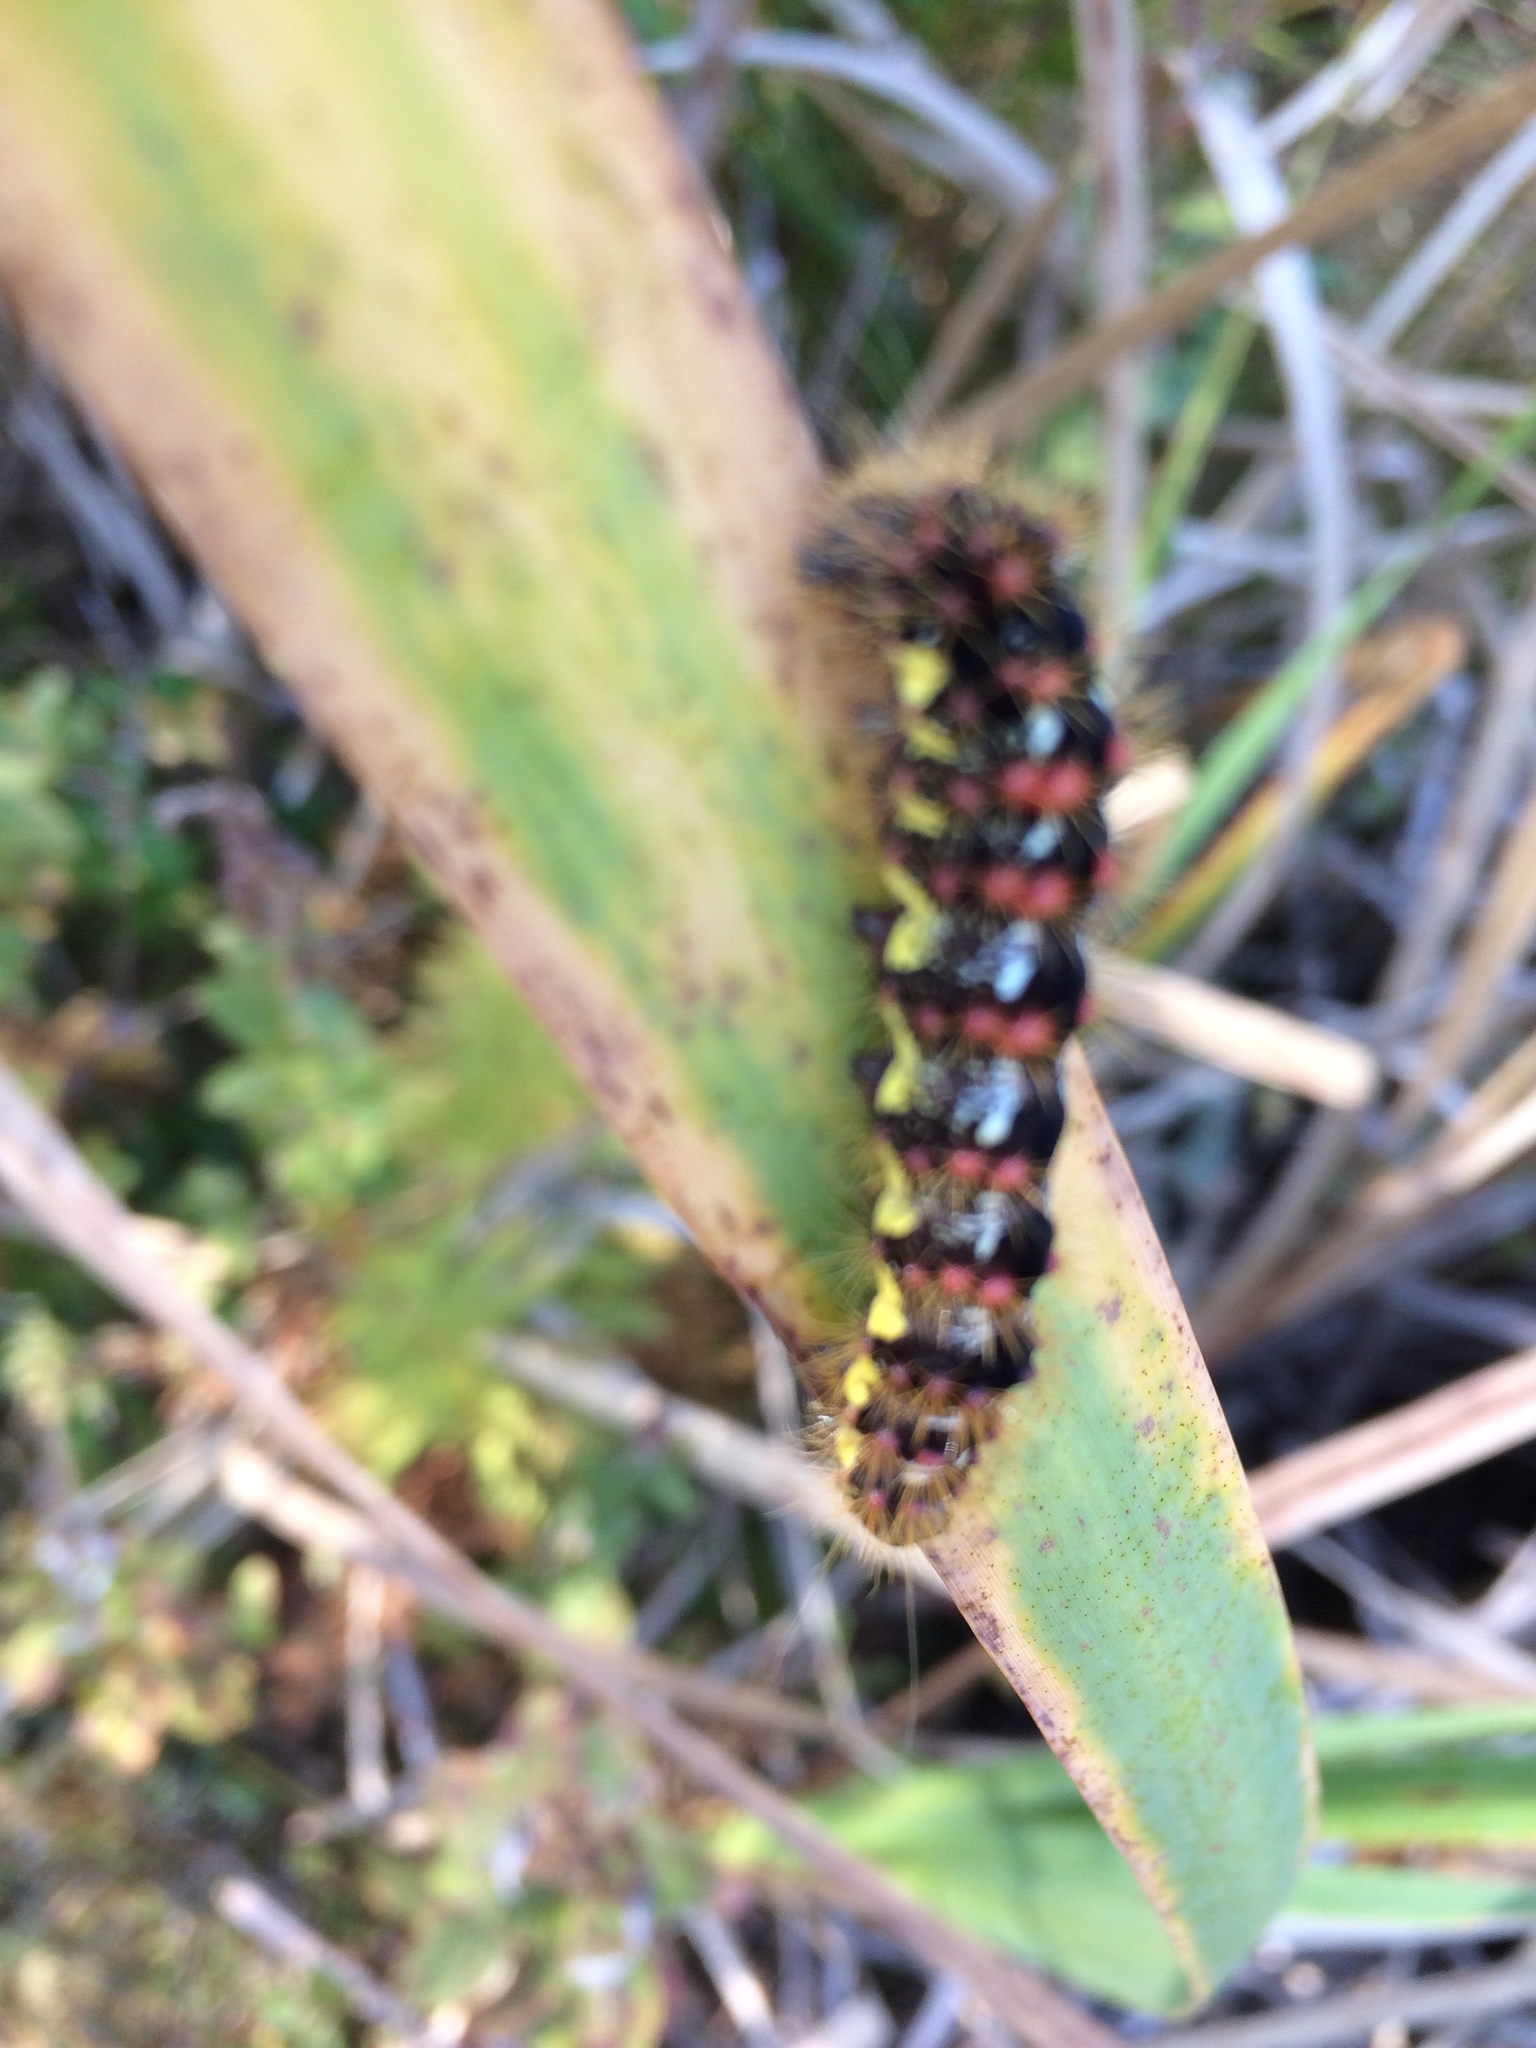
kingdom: Animalia
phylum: Arthropoda
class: Insecta
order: Lepidoptera
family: Noctuidae
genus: Acronicta
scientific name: Acronicta oblinita
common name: Smeared dagger
